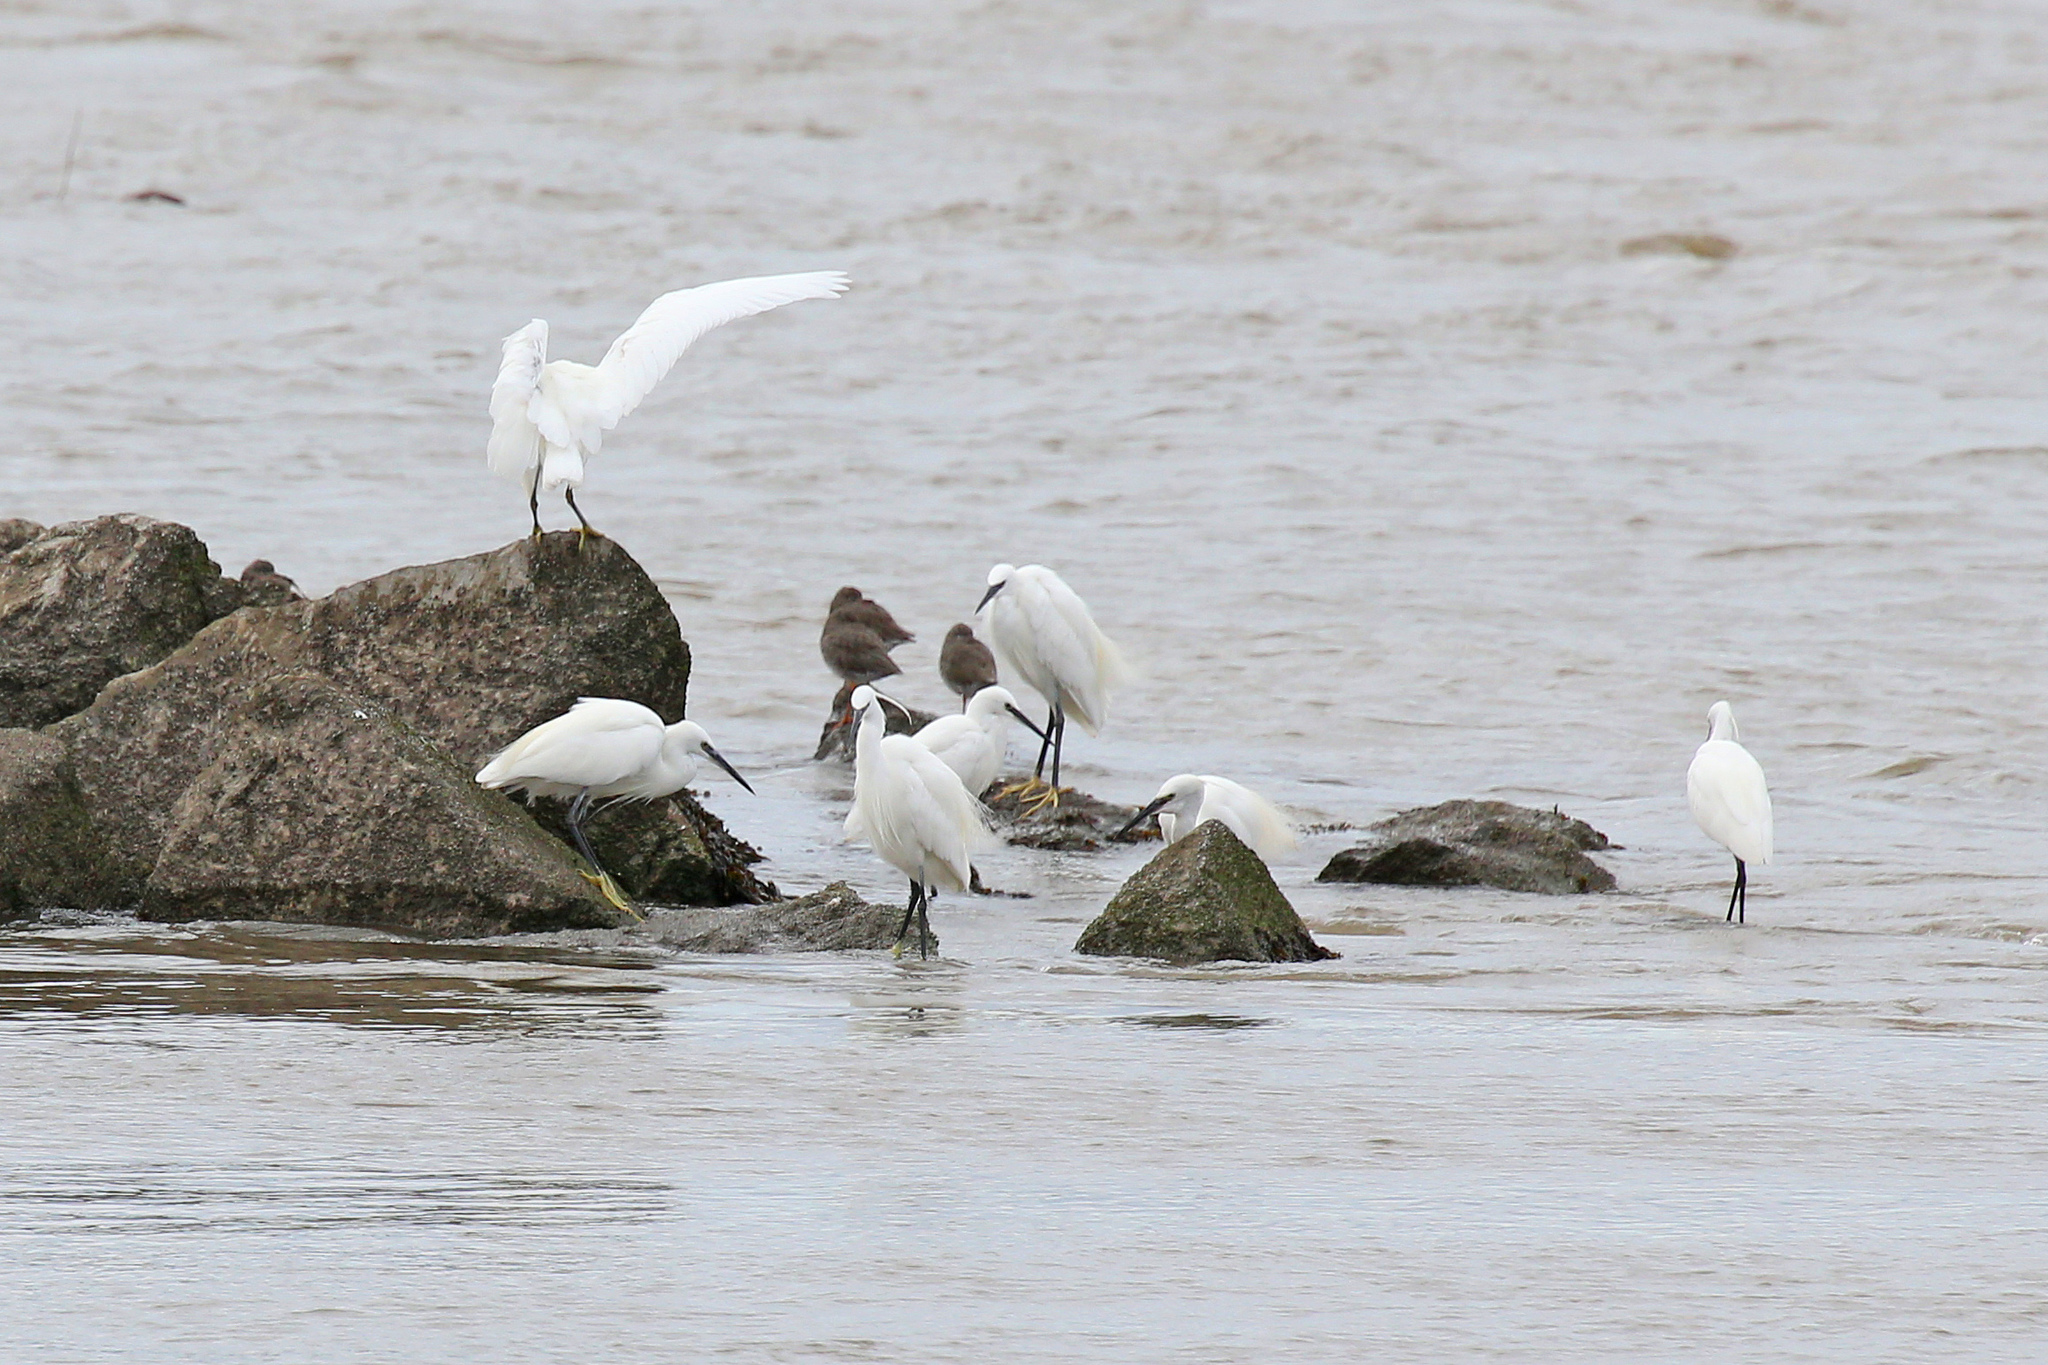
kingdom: Animalia
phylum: Chordata
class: Aves
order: Pelecaniformes
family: Ardeidae
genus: Egretta
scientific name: Egretta garzetta
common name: Little egret
